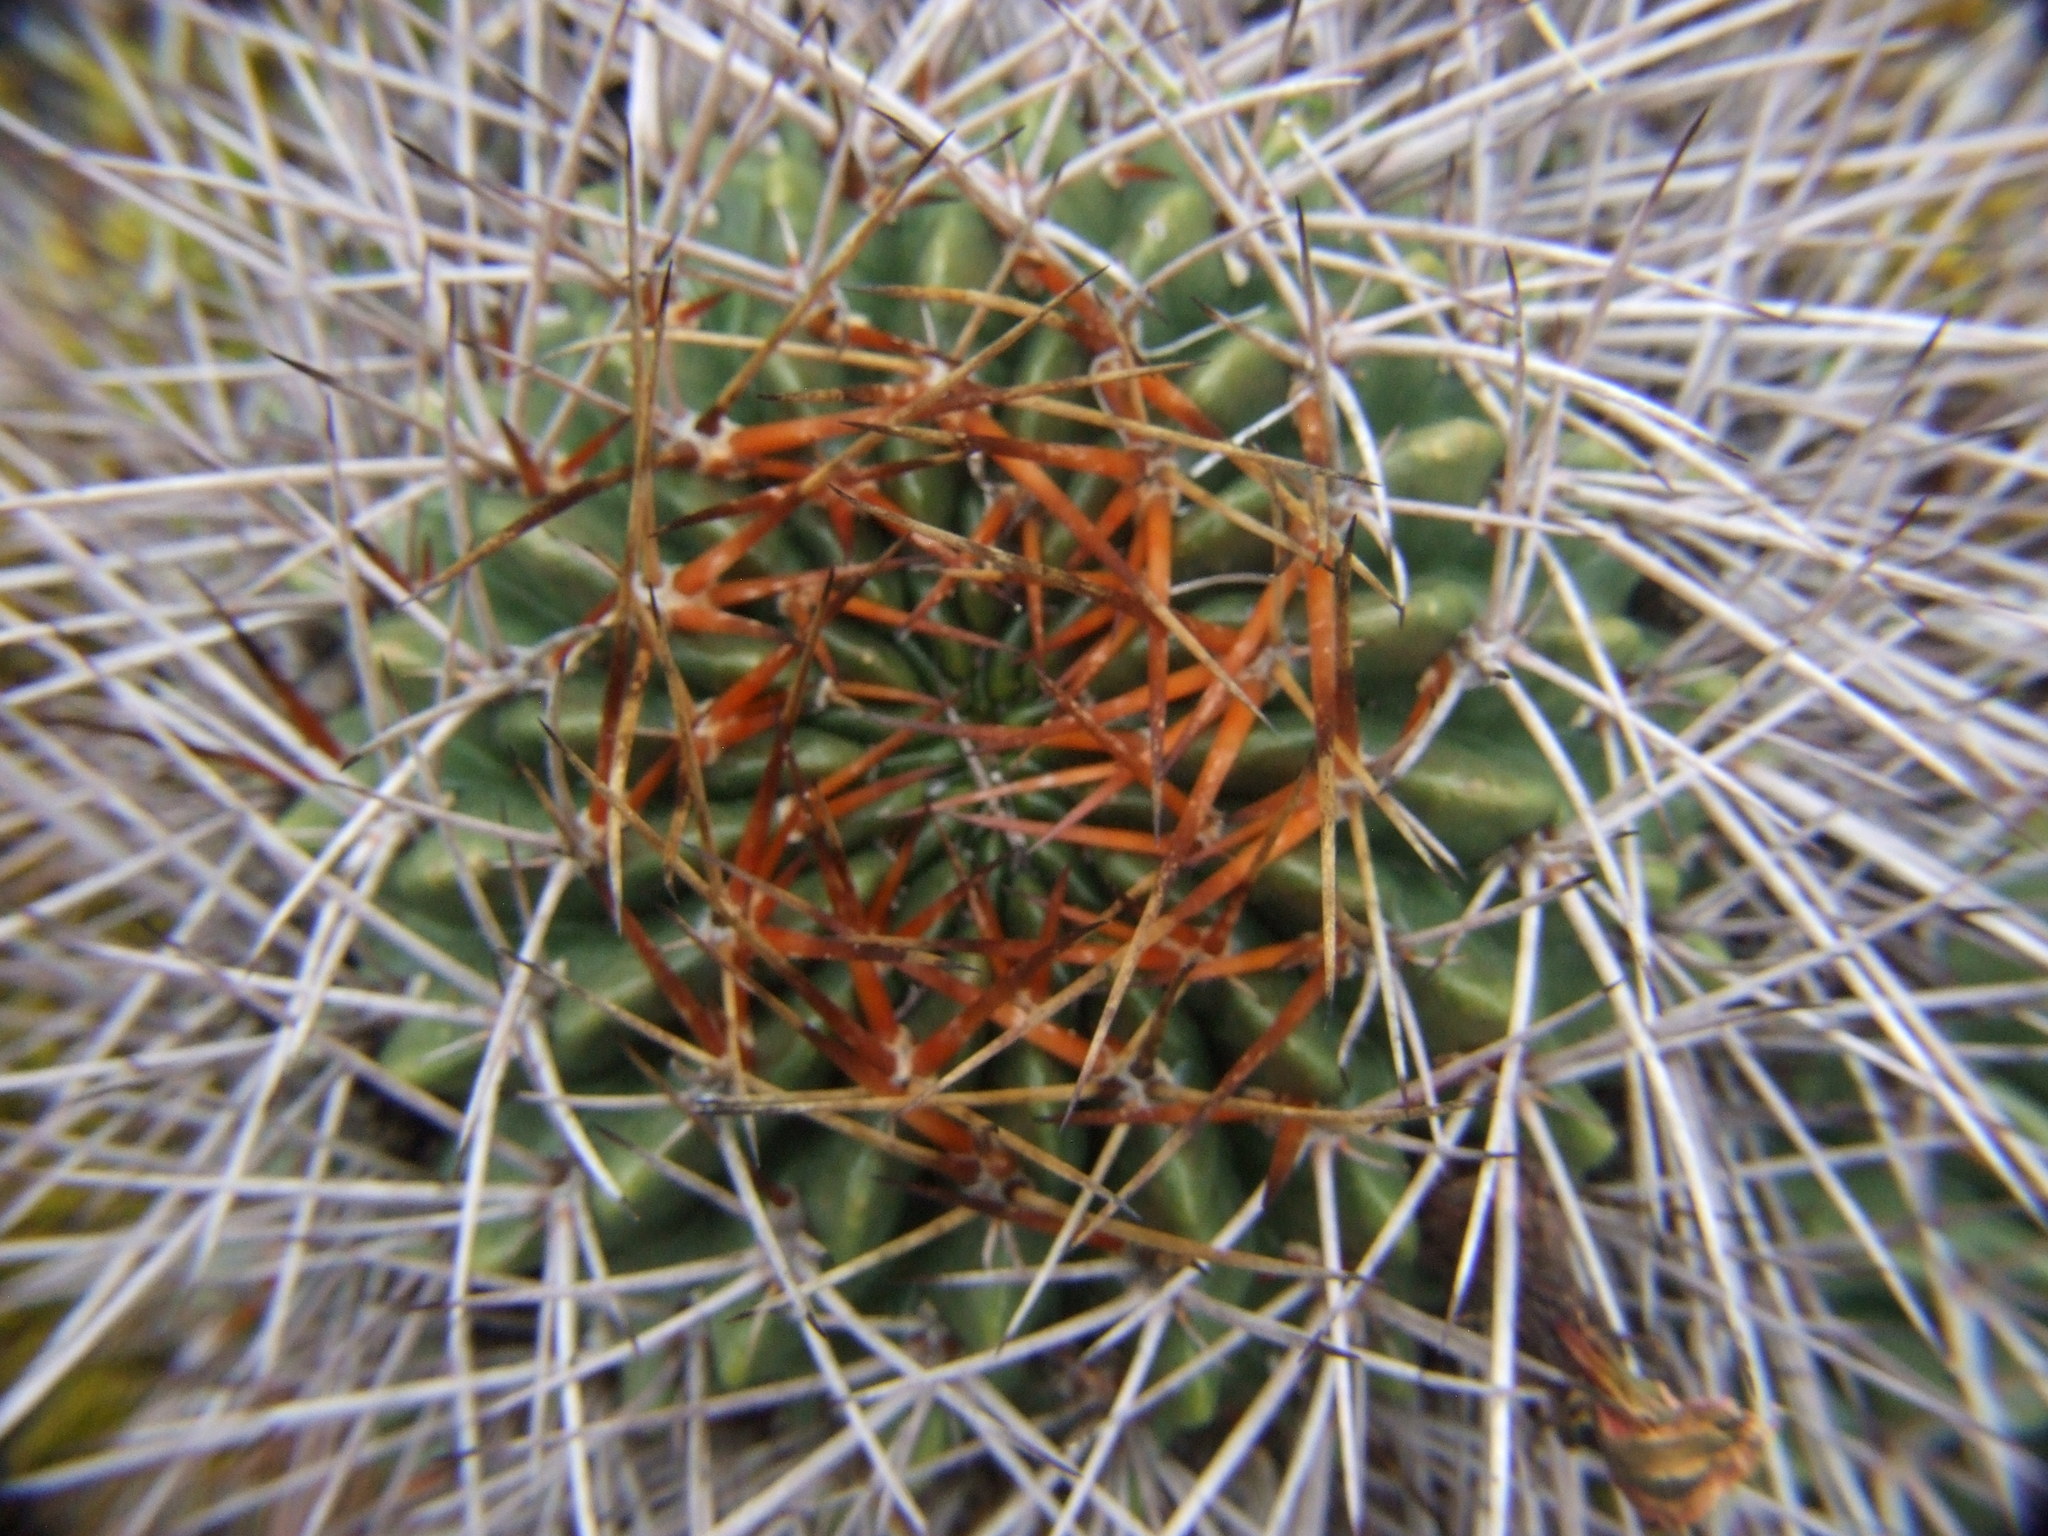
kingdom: Plantae
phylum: Tracheophyta
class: Magnoliopsida
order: Caryophyllales
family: Cactaceae
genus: Lobivia
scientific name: Lobivia maximiliana
